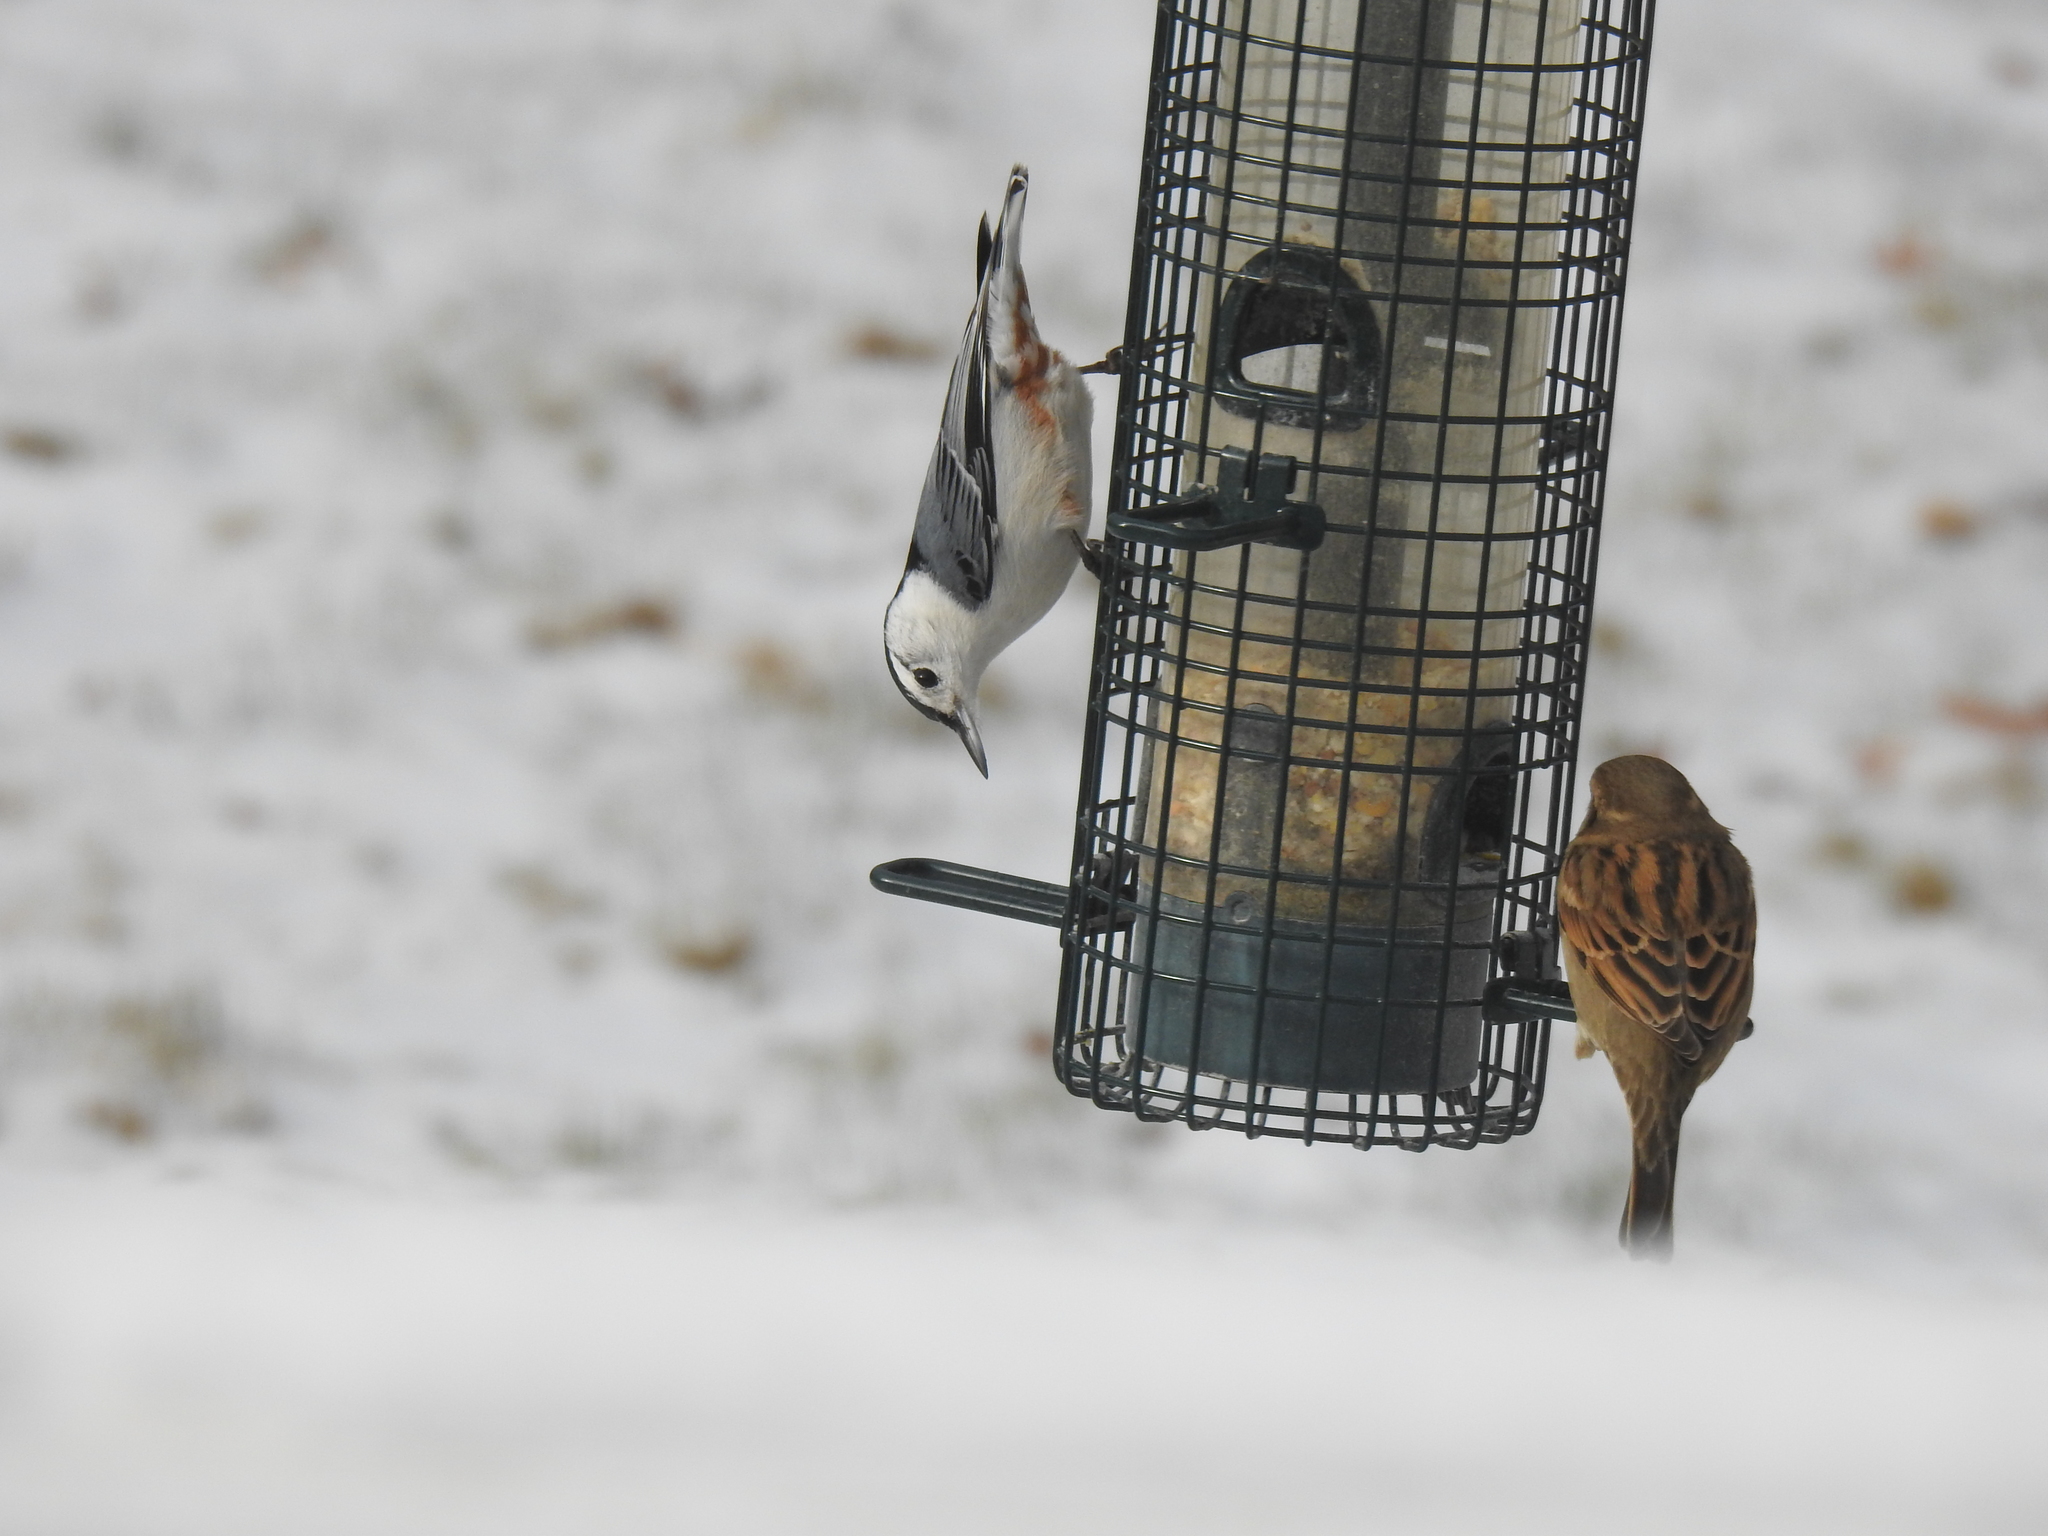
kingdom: Animalia
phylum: Chordata
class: Aves
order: Passeriformes
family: Sittidae
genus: Sitta
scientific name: Sitta carolinensis
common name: White-breasted nuthatch
